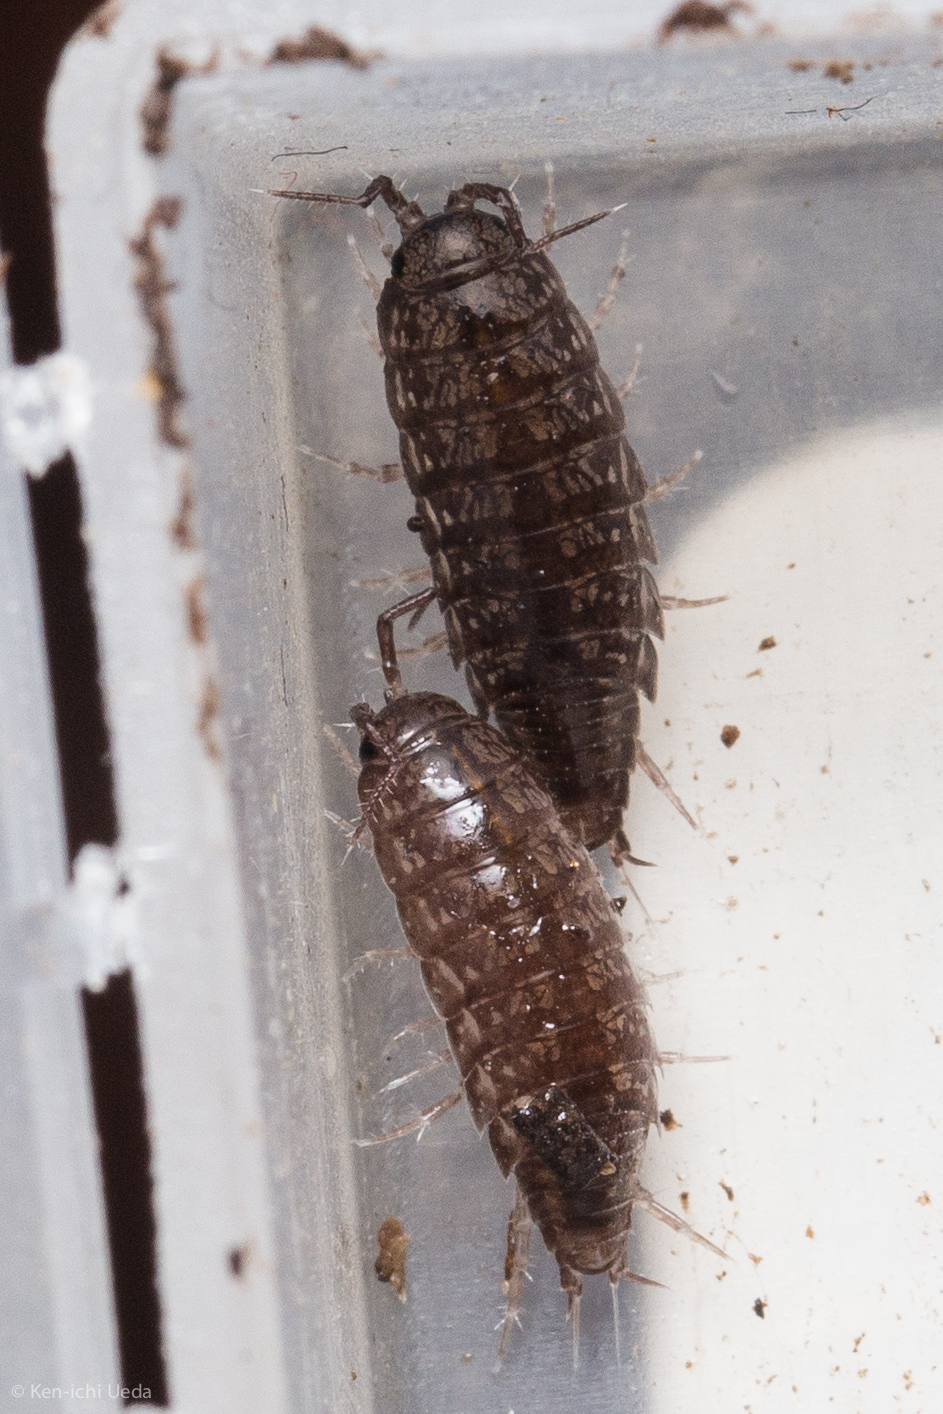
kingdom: Animalia
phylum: Arthropoda
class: Malacostraca
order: Isopoda
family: Ligiidae
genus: Ligidium
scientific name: Ligidium gracile
